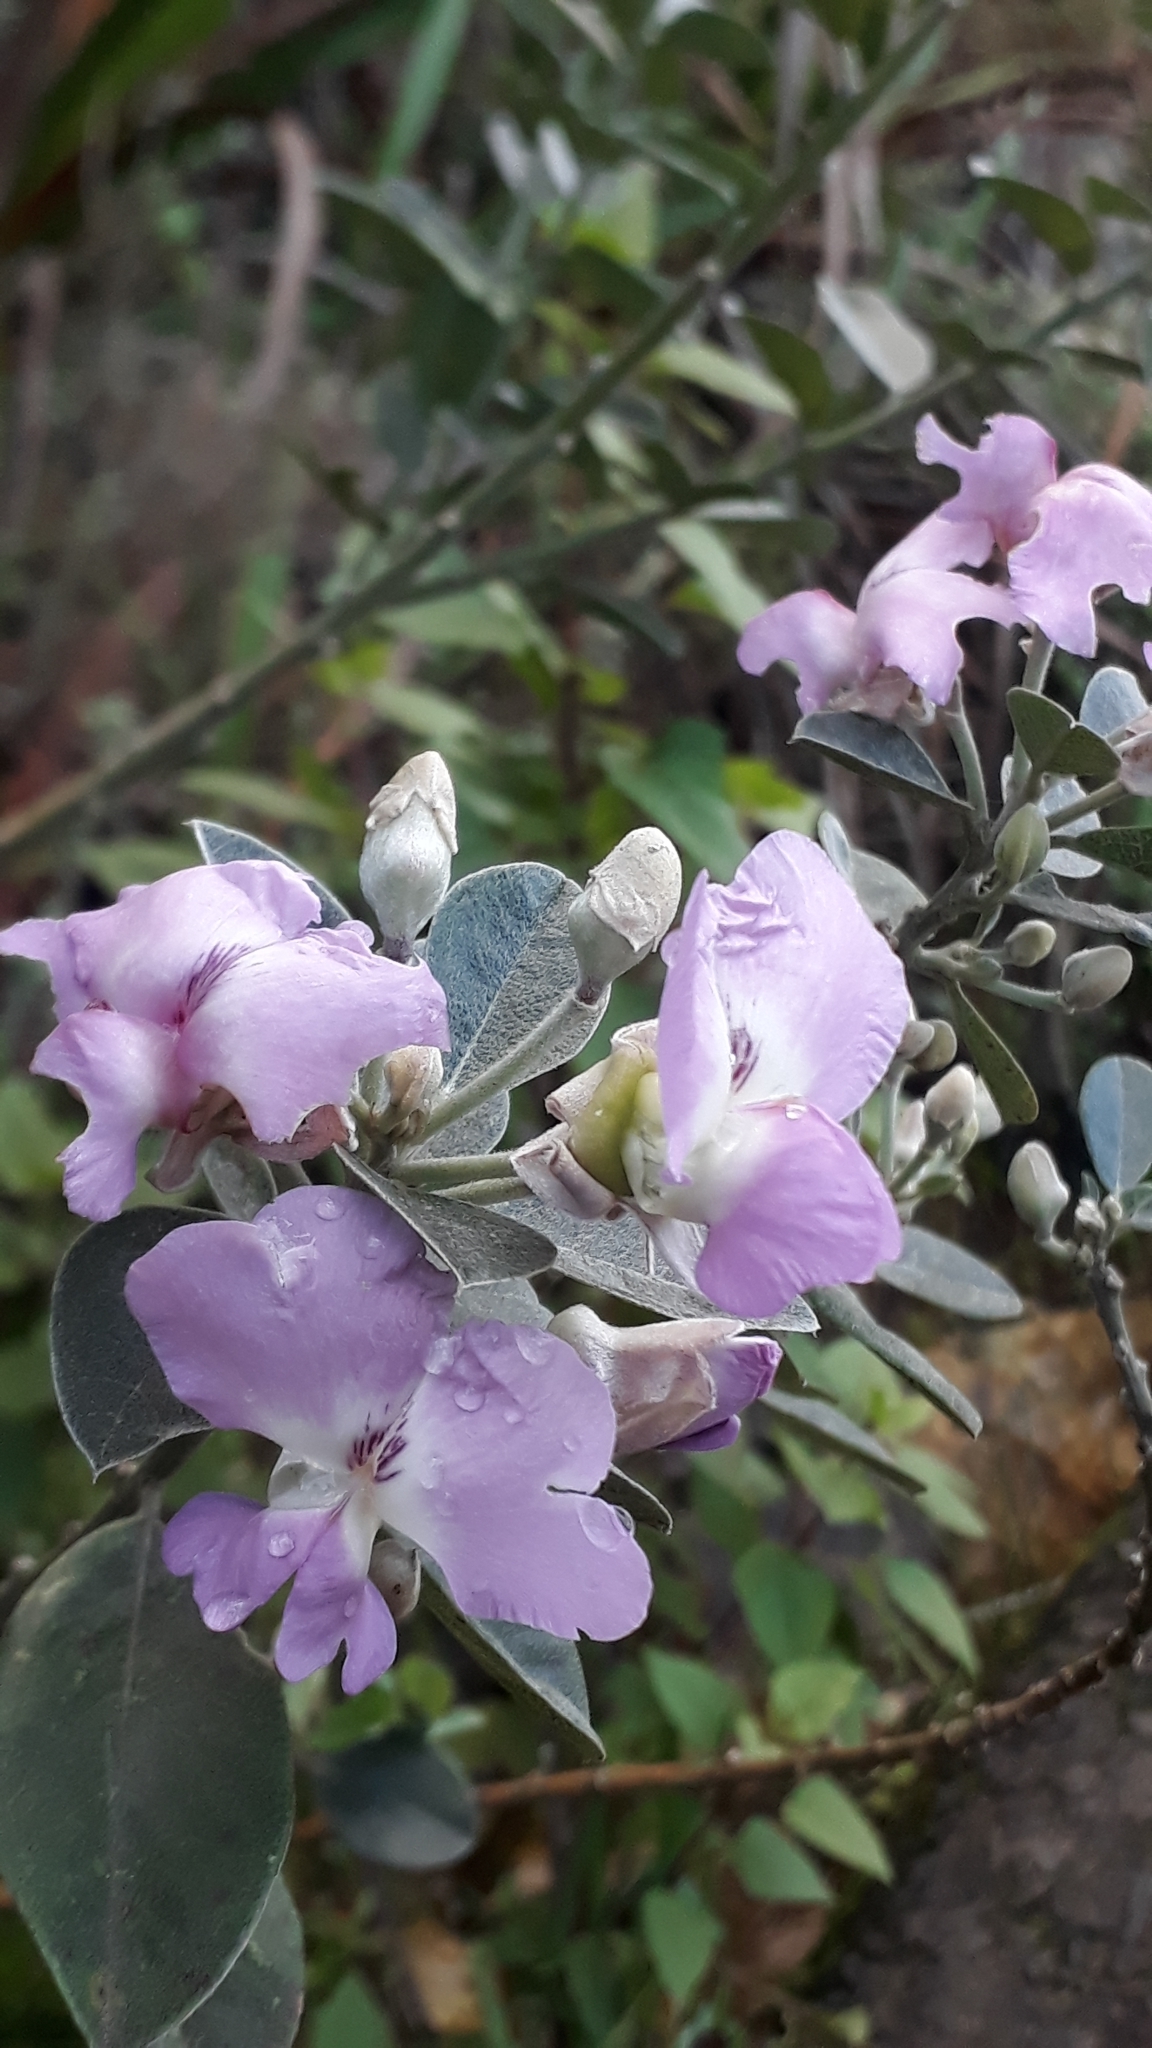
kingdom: Plantae
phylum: Tracheophyta
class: Magnoliopsida
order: Fabales
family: Fabaceae
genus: Podalyria
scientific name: Podalyria calyptrata
